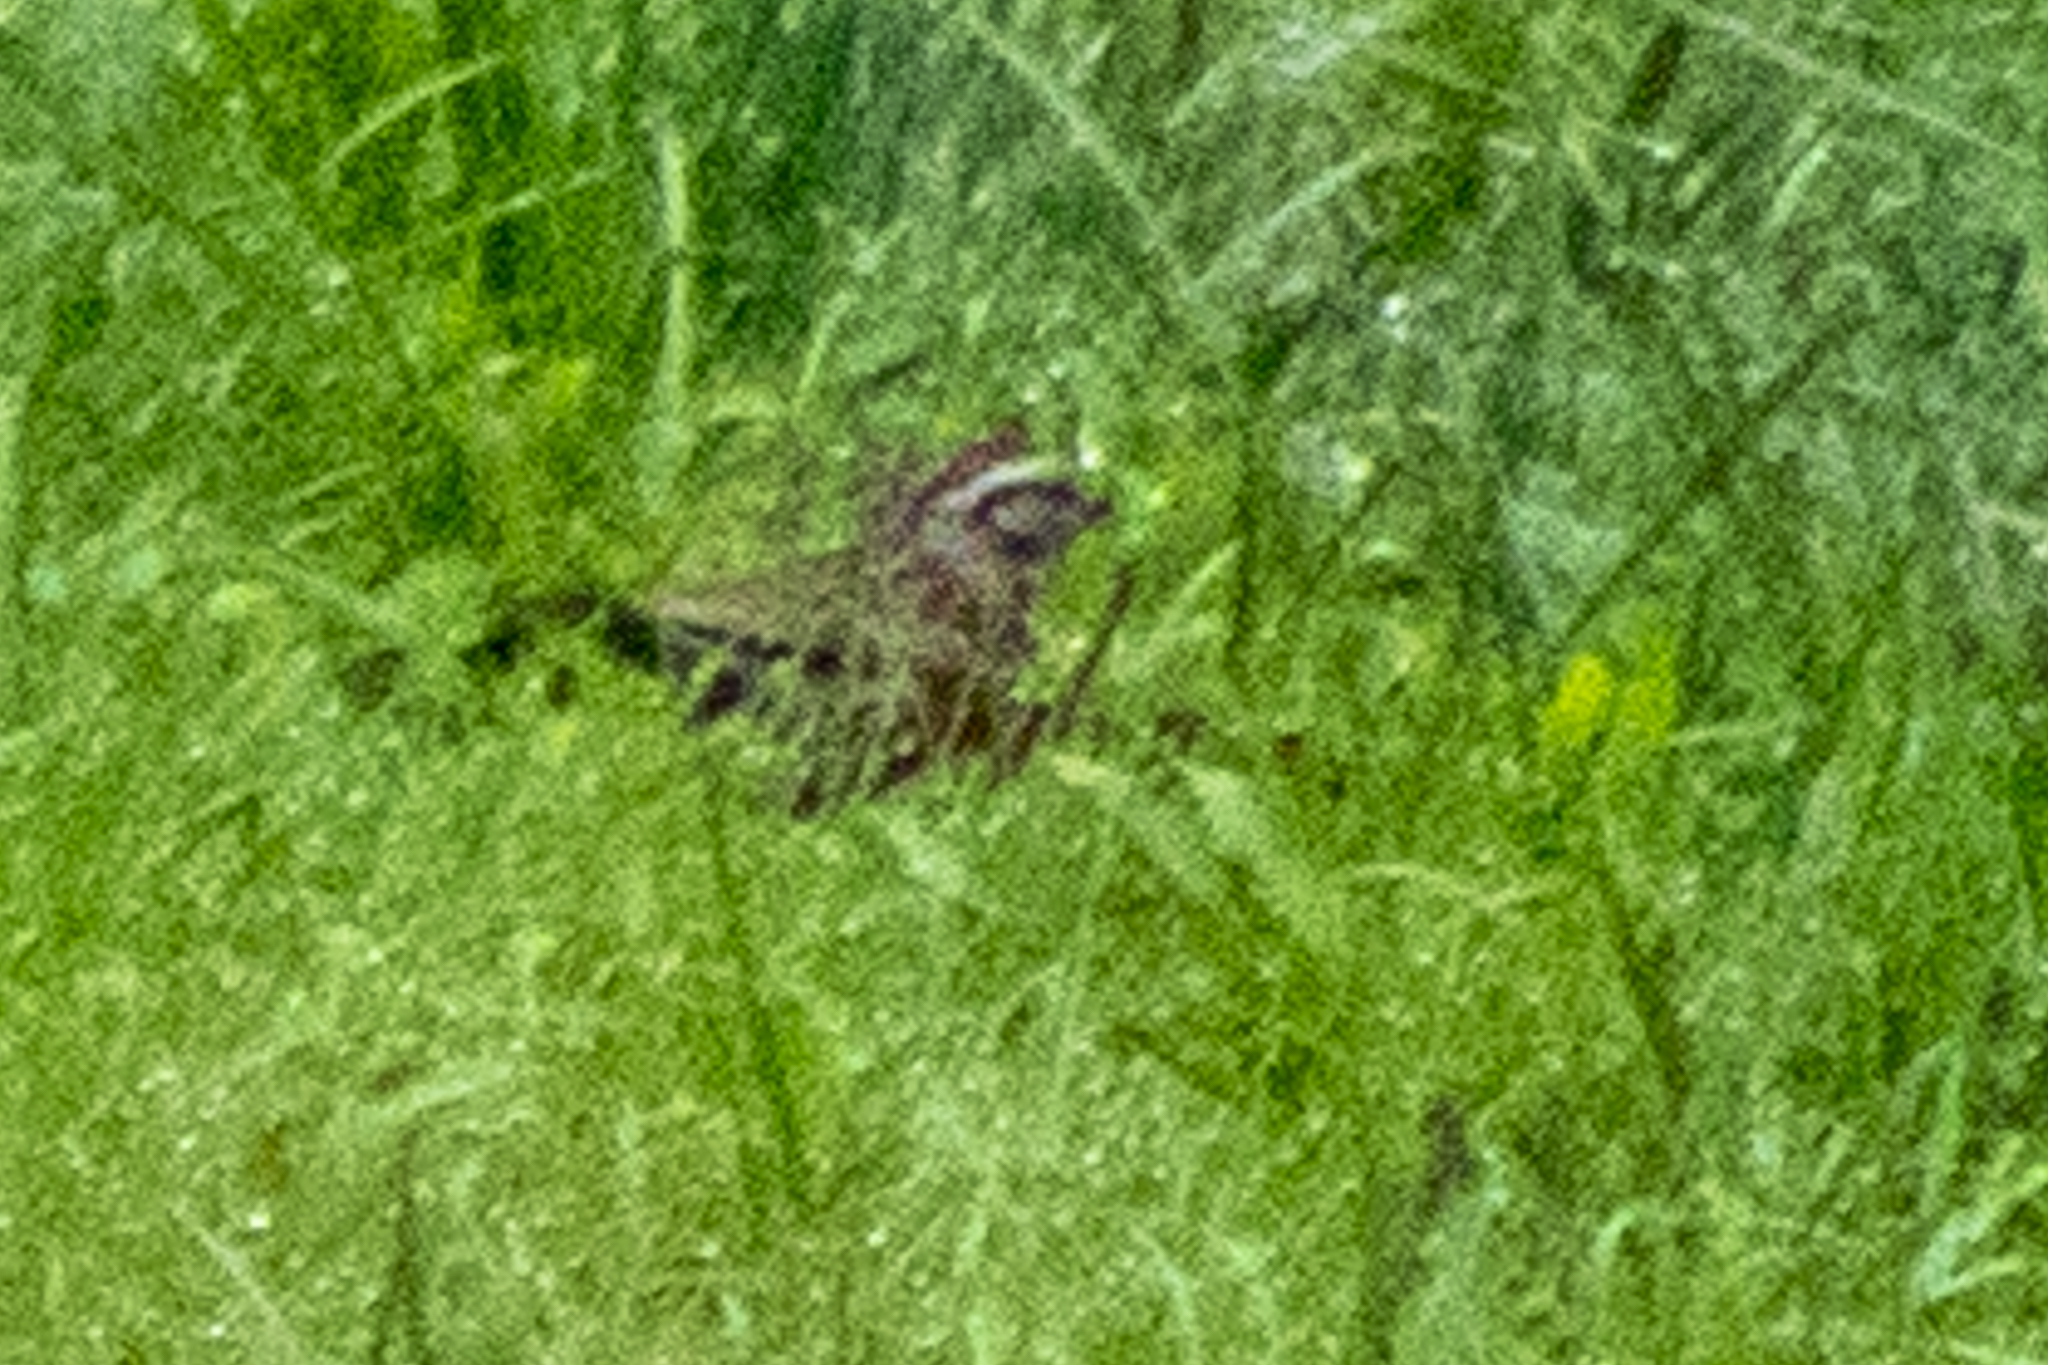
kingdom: Animalia
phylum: Chordata
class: Aves
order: Passeriformes
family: Passerellidae
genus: Melospiza
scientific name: Melospiza melodia
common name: Song sparrow
